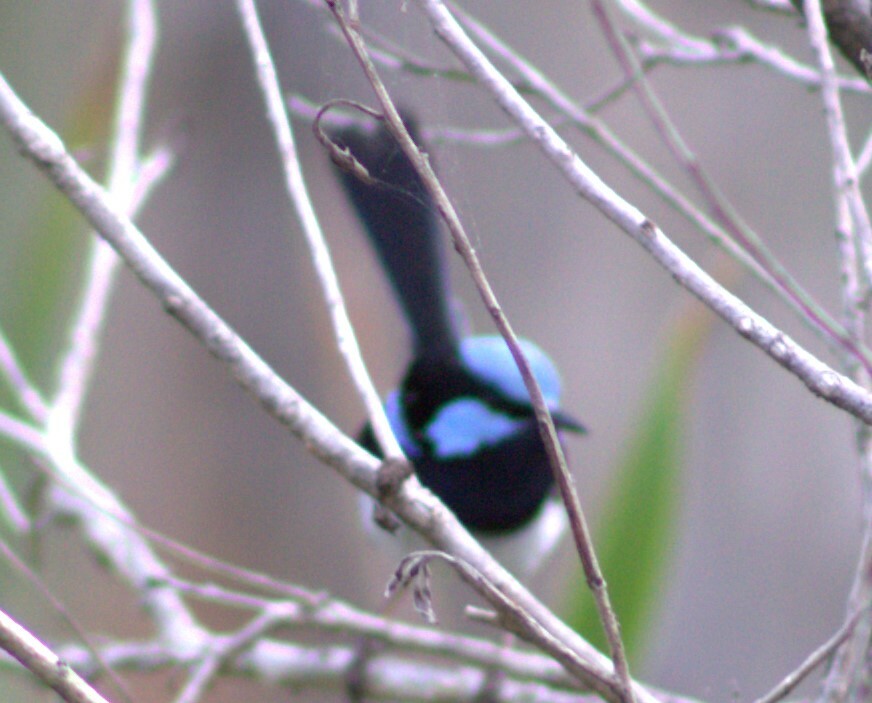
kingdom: Animalia
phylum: Chordata
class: Aves
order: Passeriformes
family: Maluridae
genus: Malurus
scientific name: Malurus cyaneus
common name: Superb fairywren
